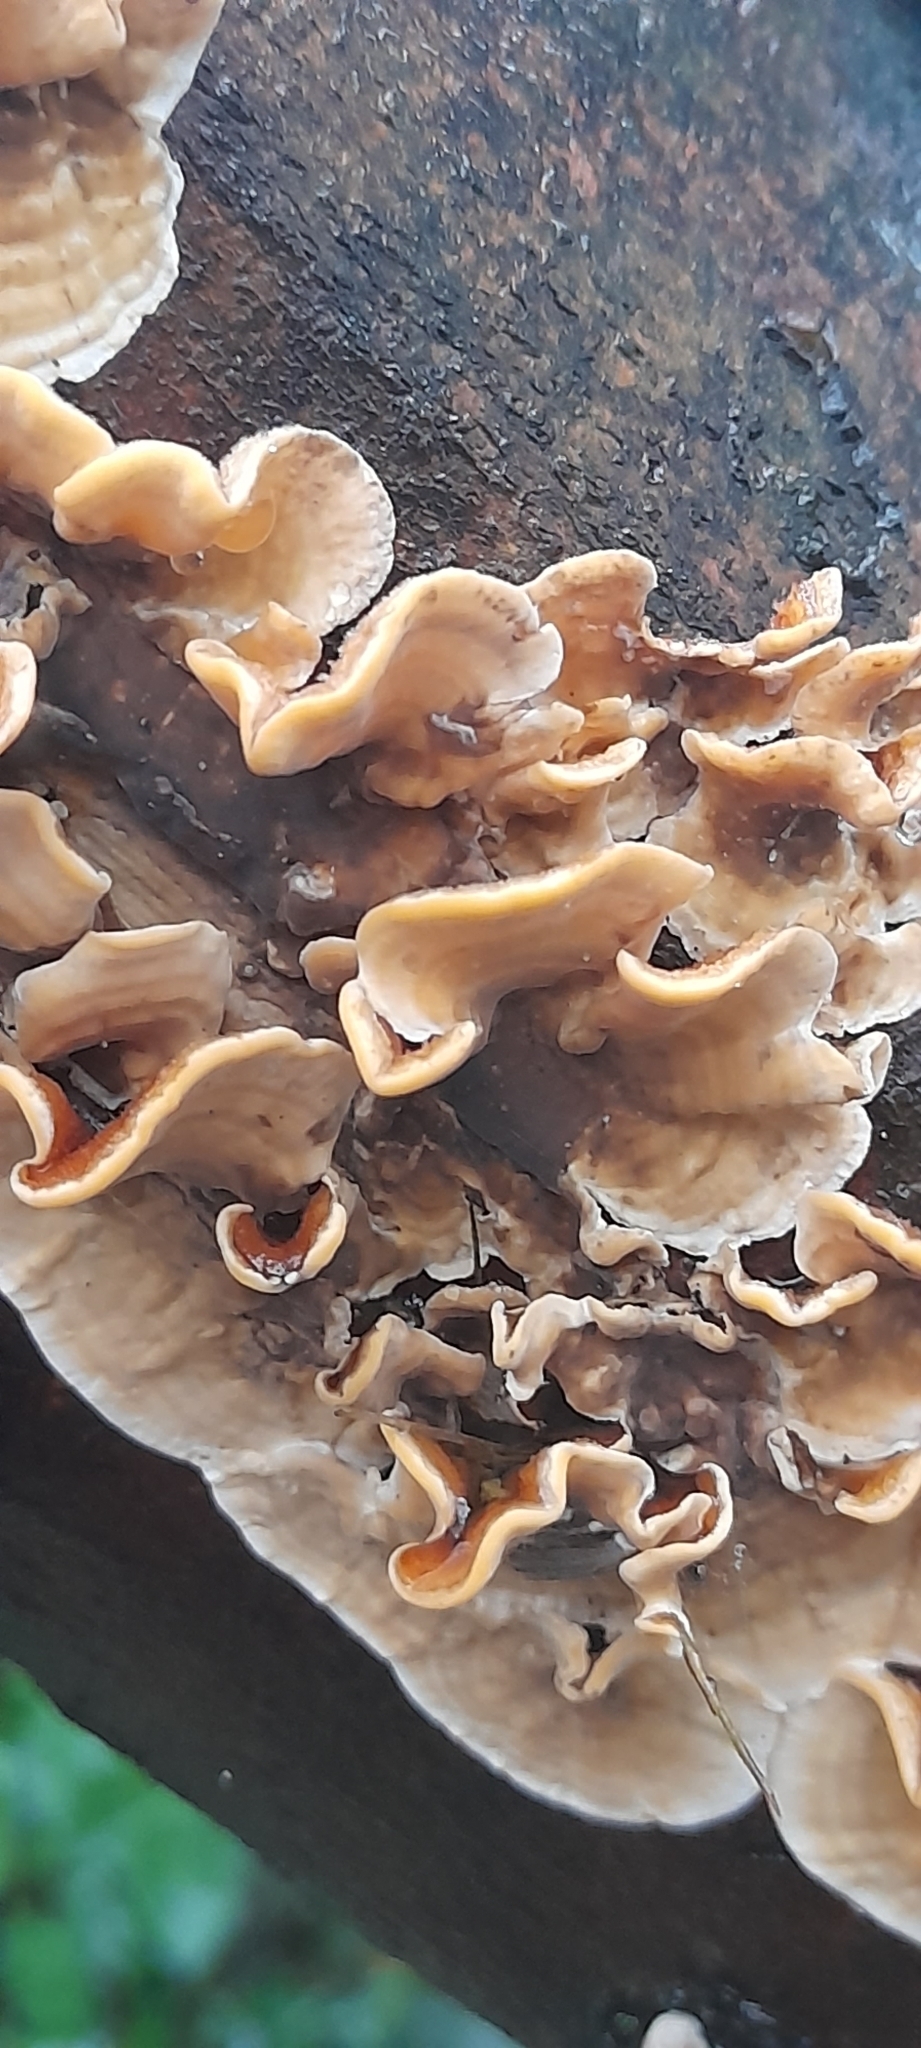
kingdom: Fungi
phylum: Basidiomycota
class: Agaricomycetes
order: Russulales
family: Stereaceae
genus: Stereum
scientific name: Stereum hirsutum
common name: Hairy curtain crust
